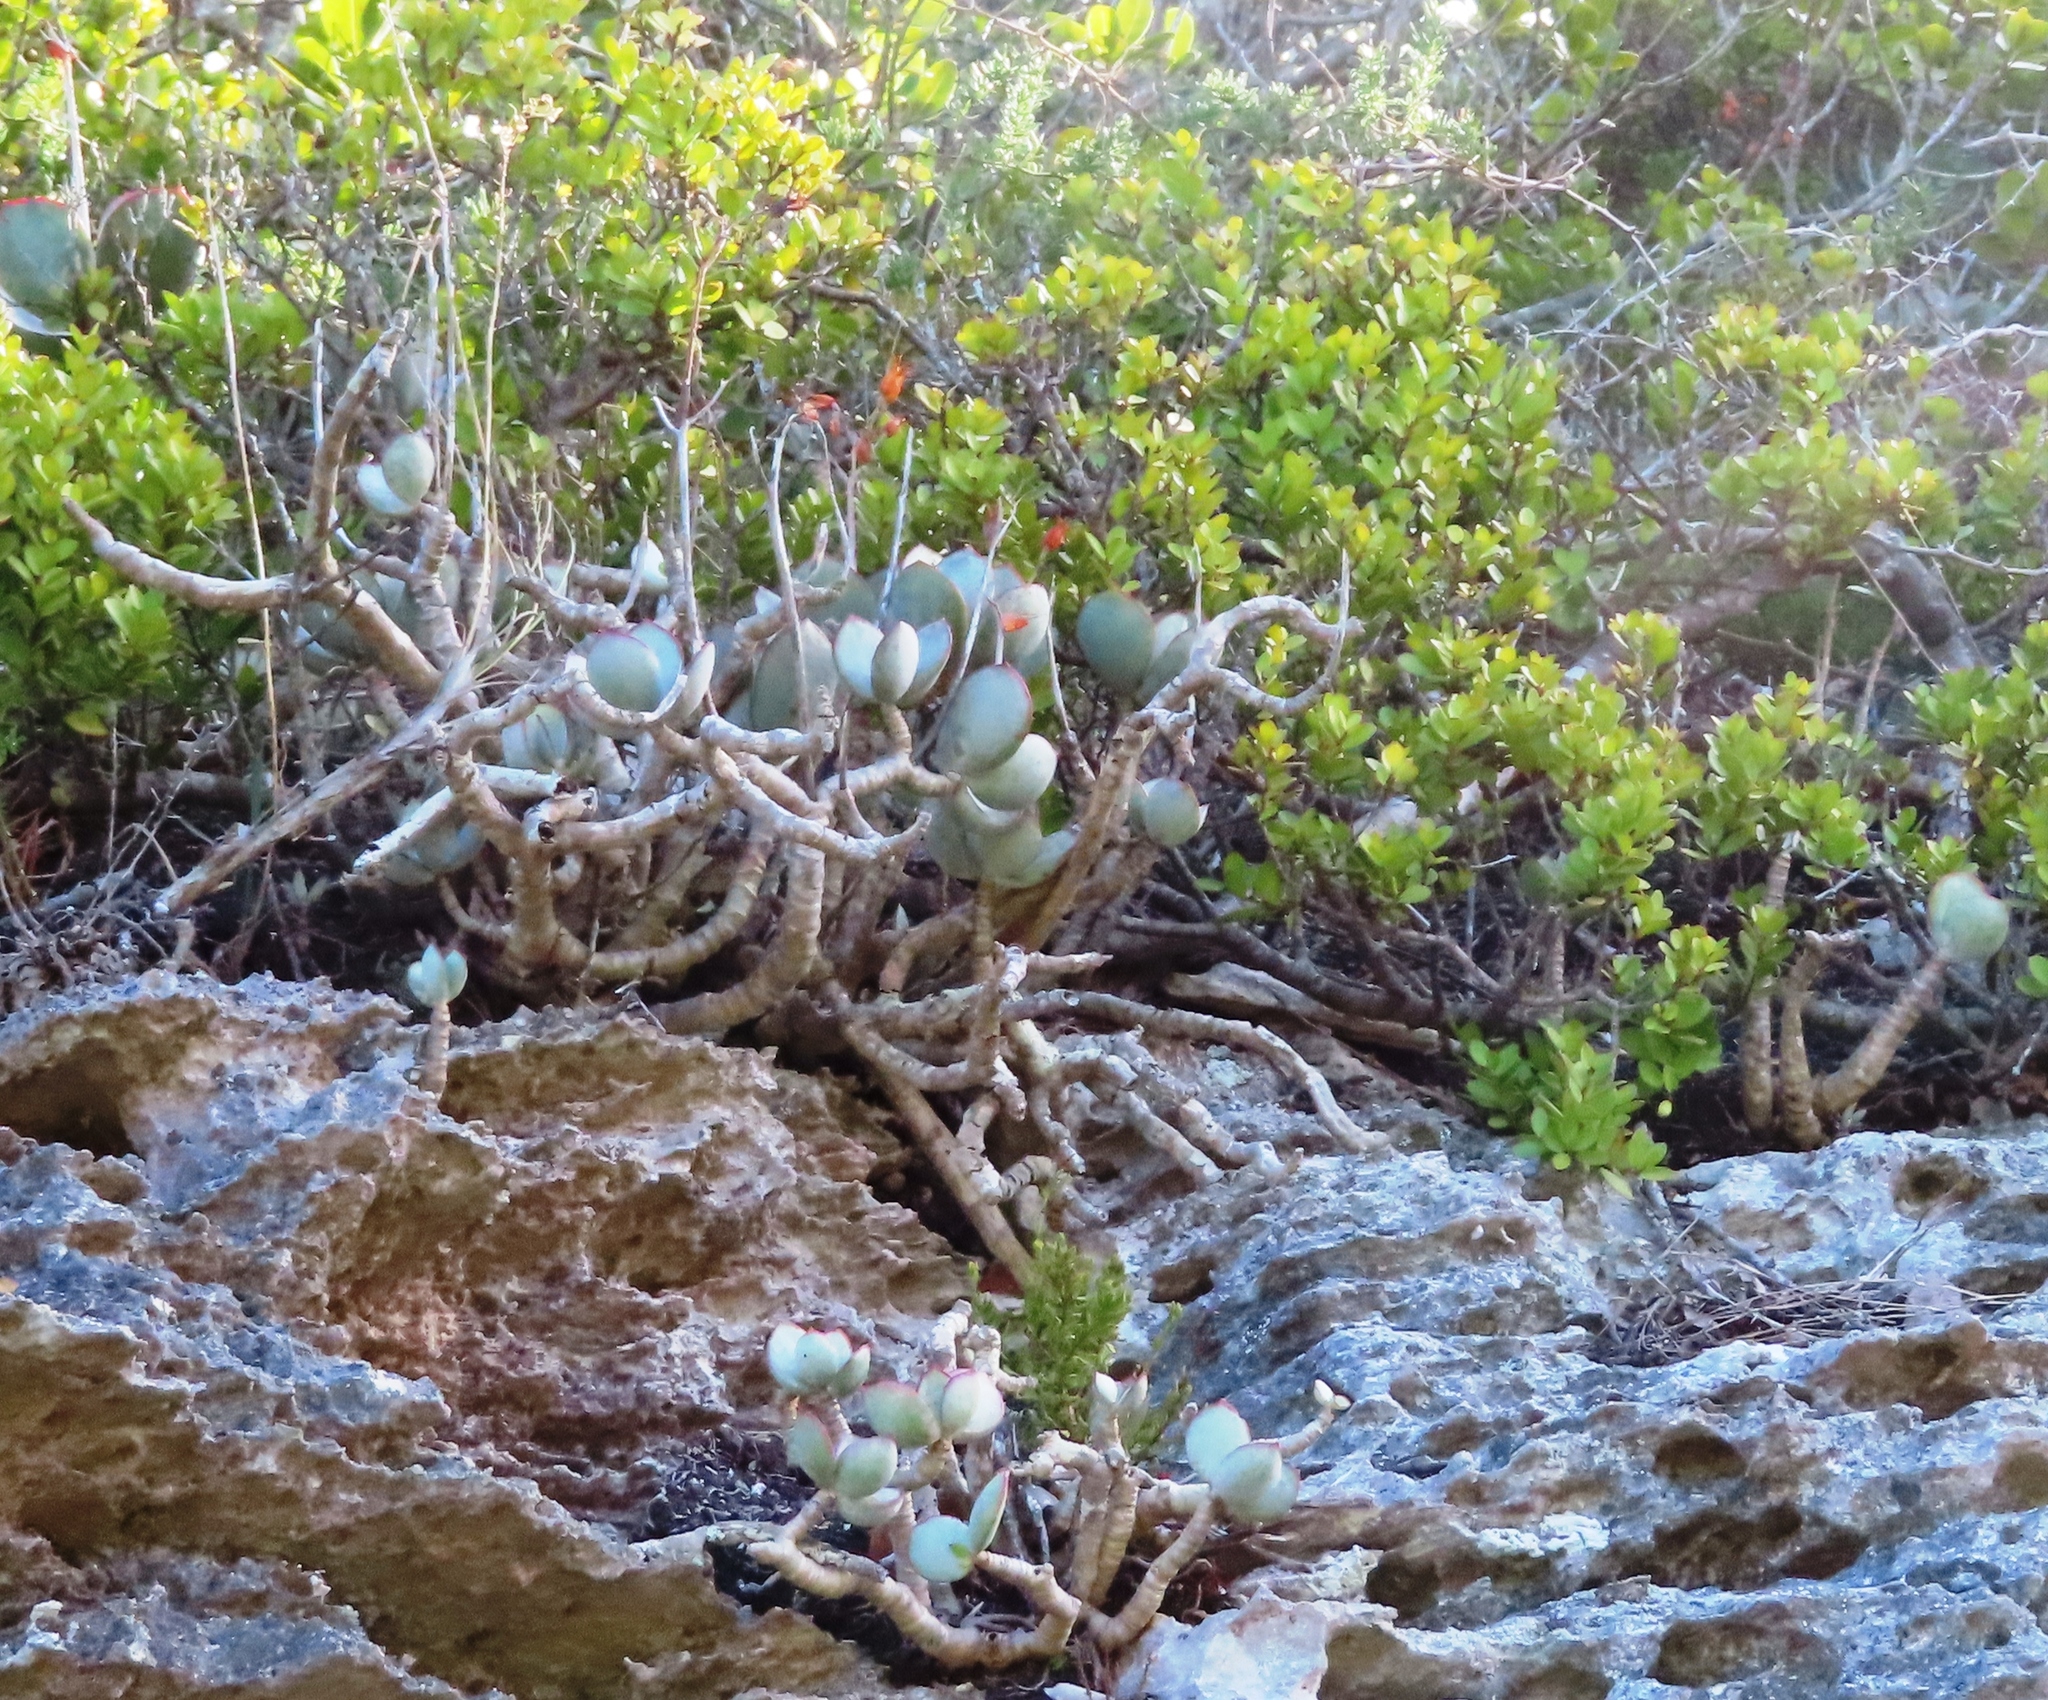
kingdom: Plantae
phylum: Tracheophyta
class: Magnoliopsida
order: Saxifragales
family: Crassulaceae
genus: Cotyledon
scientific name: Cotyledon orbiculata
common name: Pig's ear
